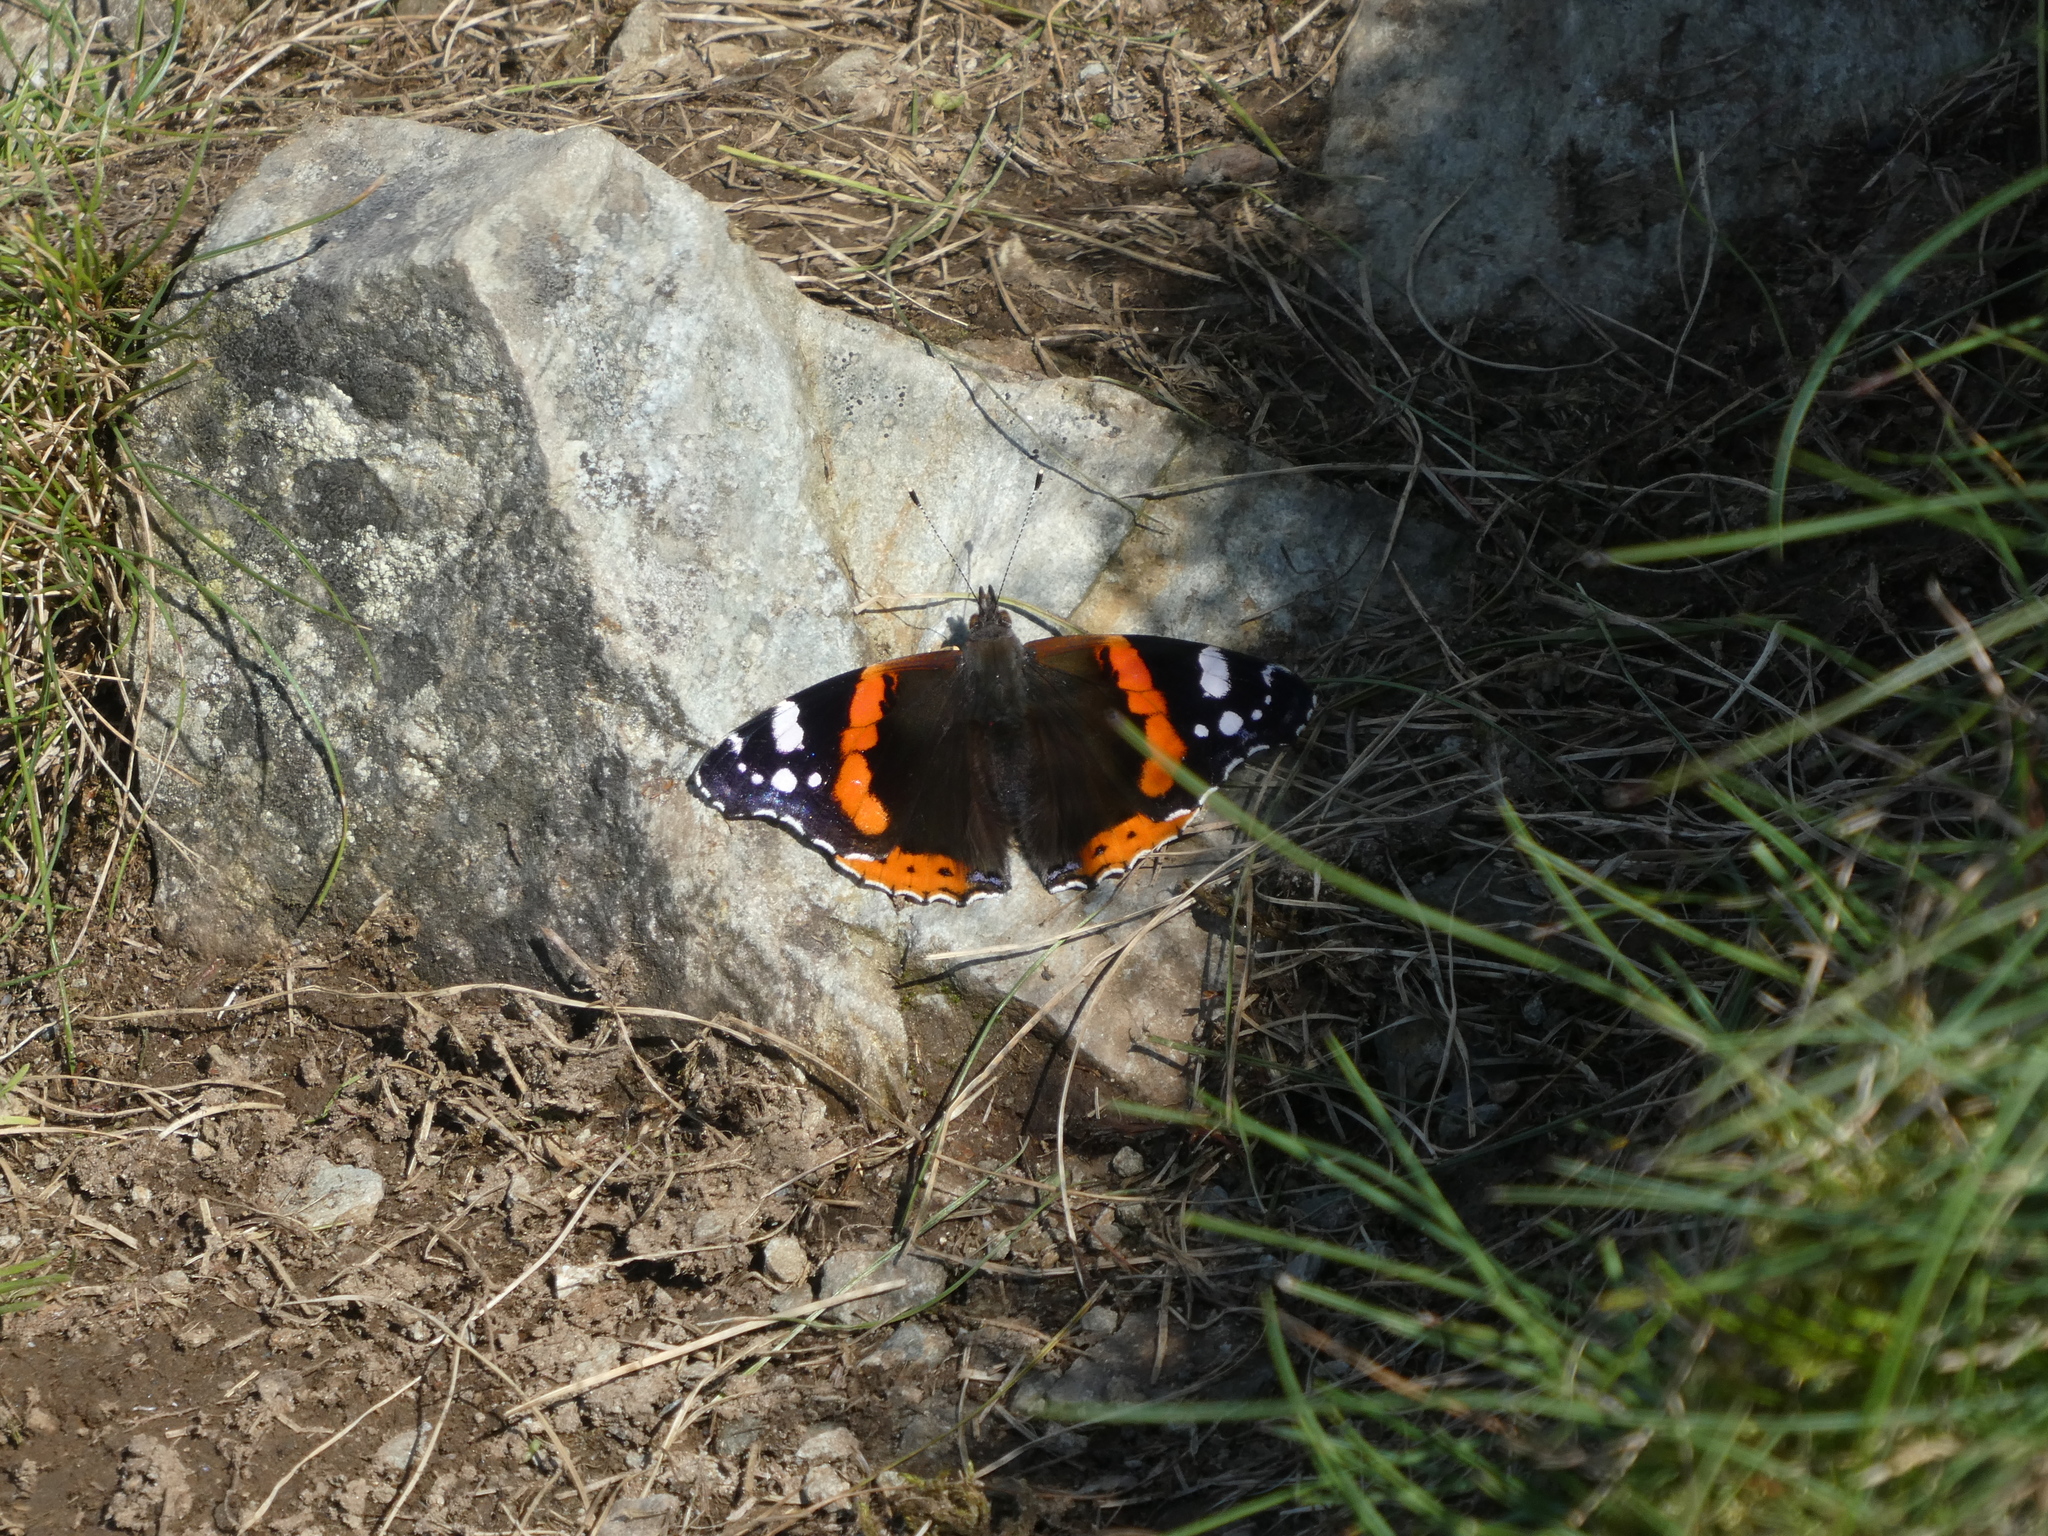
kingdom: Animalia
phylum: Arthropoda
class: Insecta
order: Lepidoptera
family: Nymphalidae
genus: Vanessa
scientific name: Vanessa atalanta
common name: Red admiral
